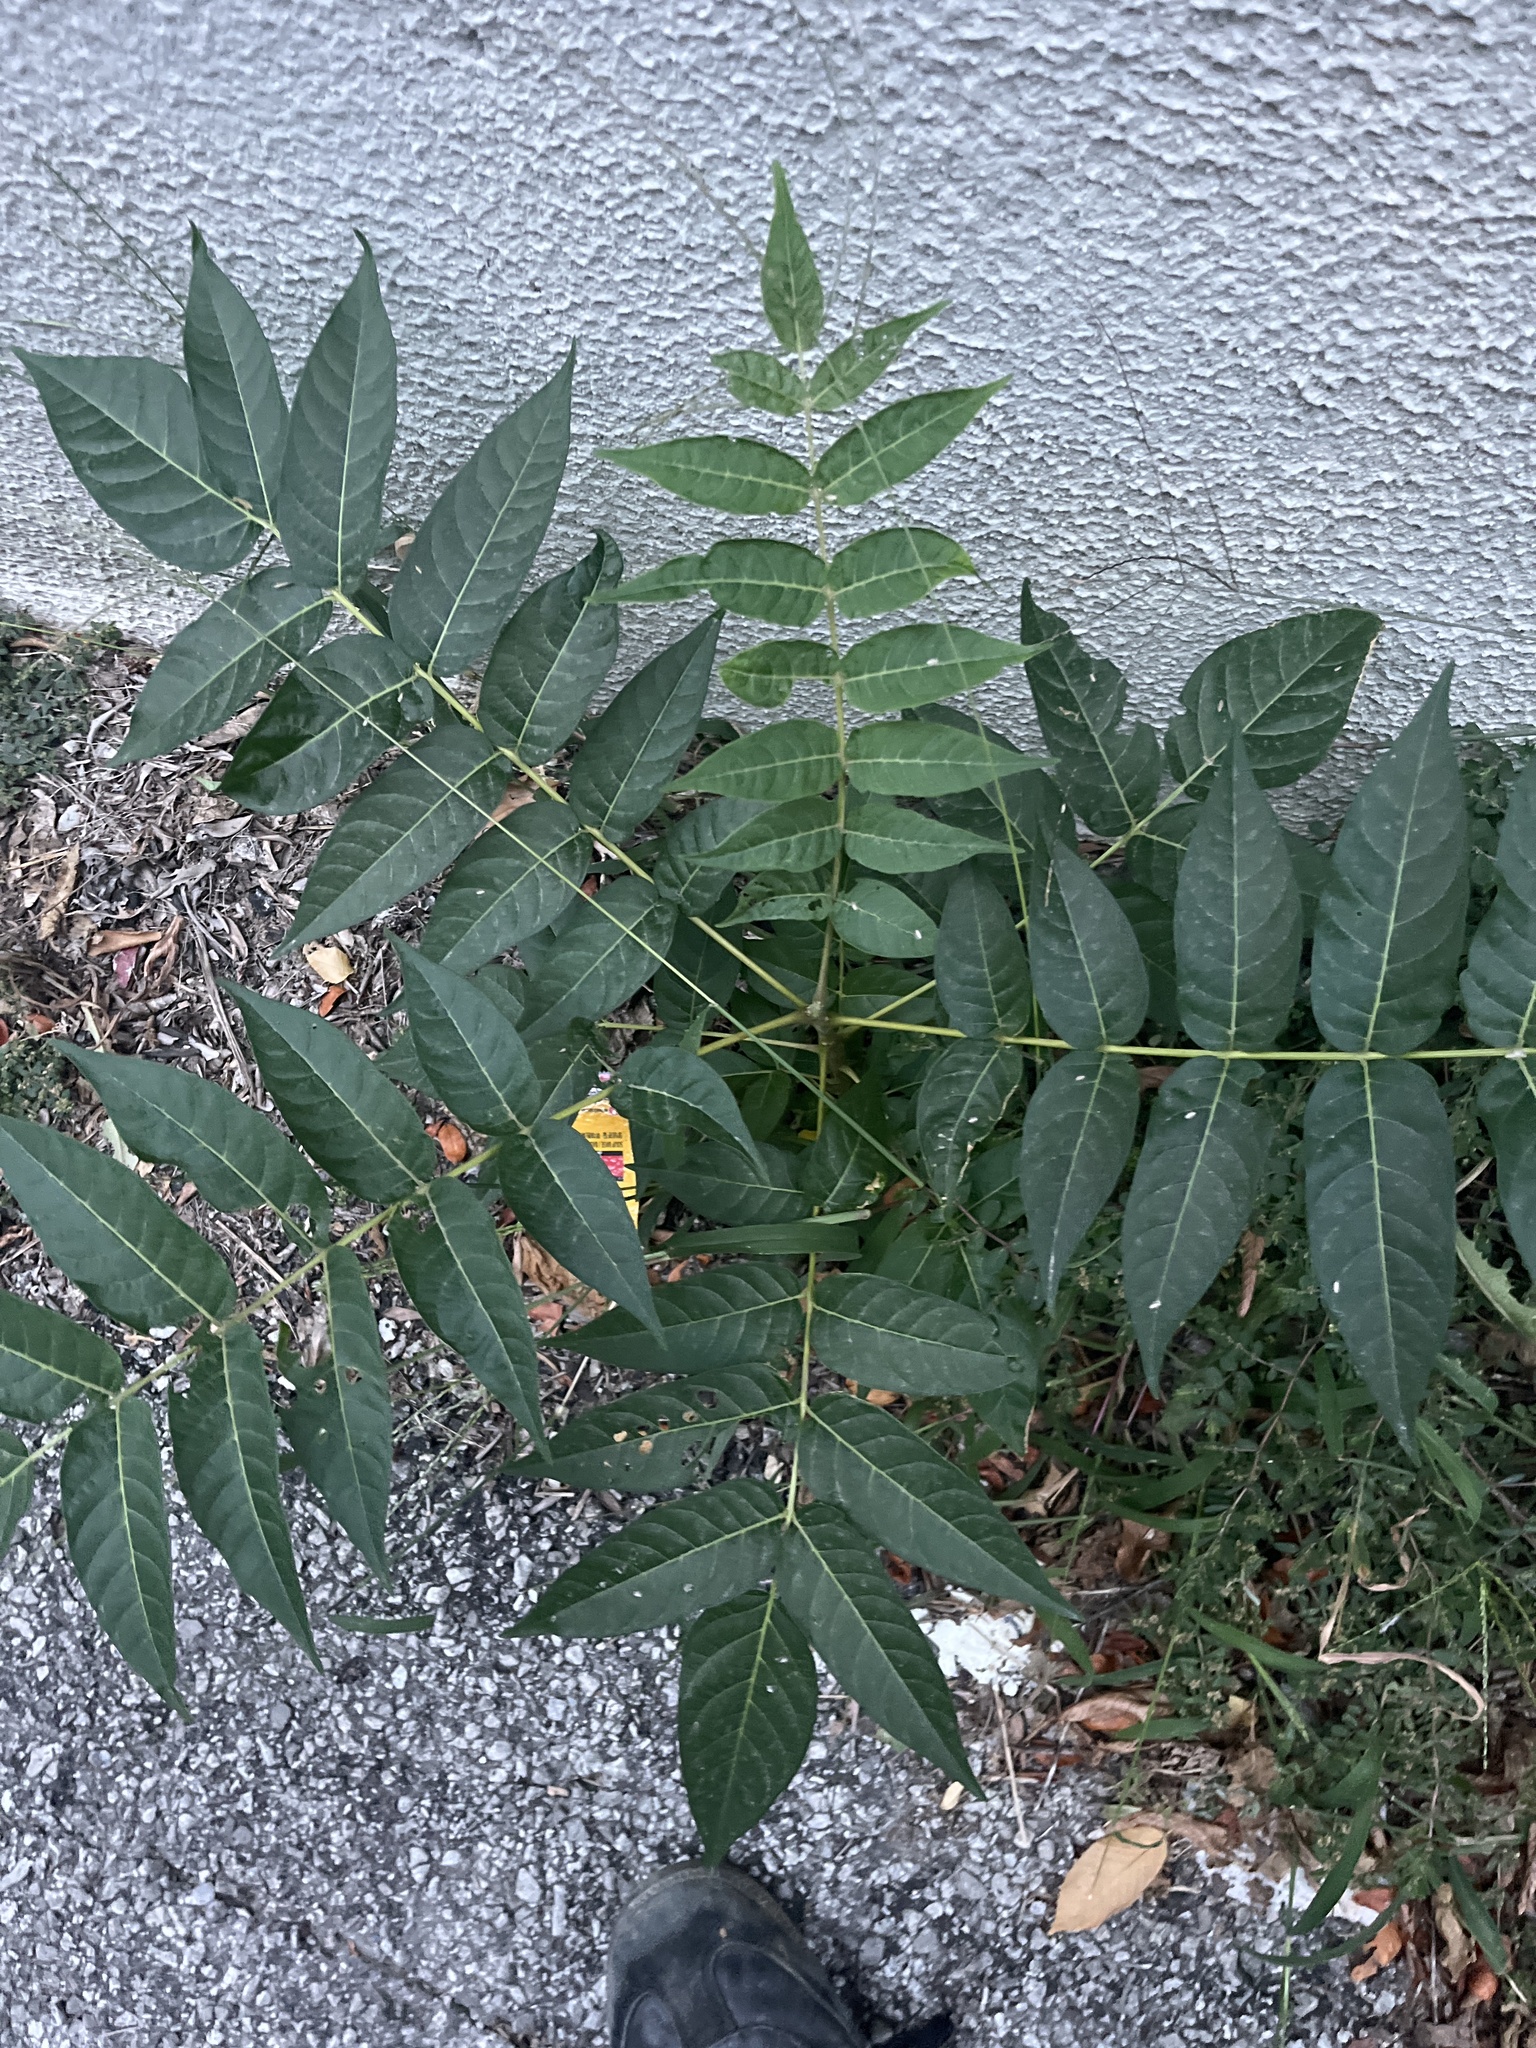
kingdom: Plantae
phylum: Tracheophyta
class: Magnoliopsida
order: Sapindales
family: Simaroubaceae
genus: Ailanthus
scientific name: Ailanthus altissima
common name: Tree-of-heaven
